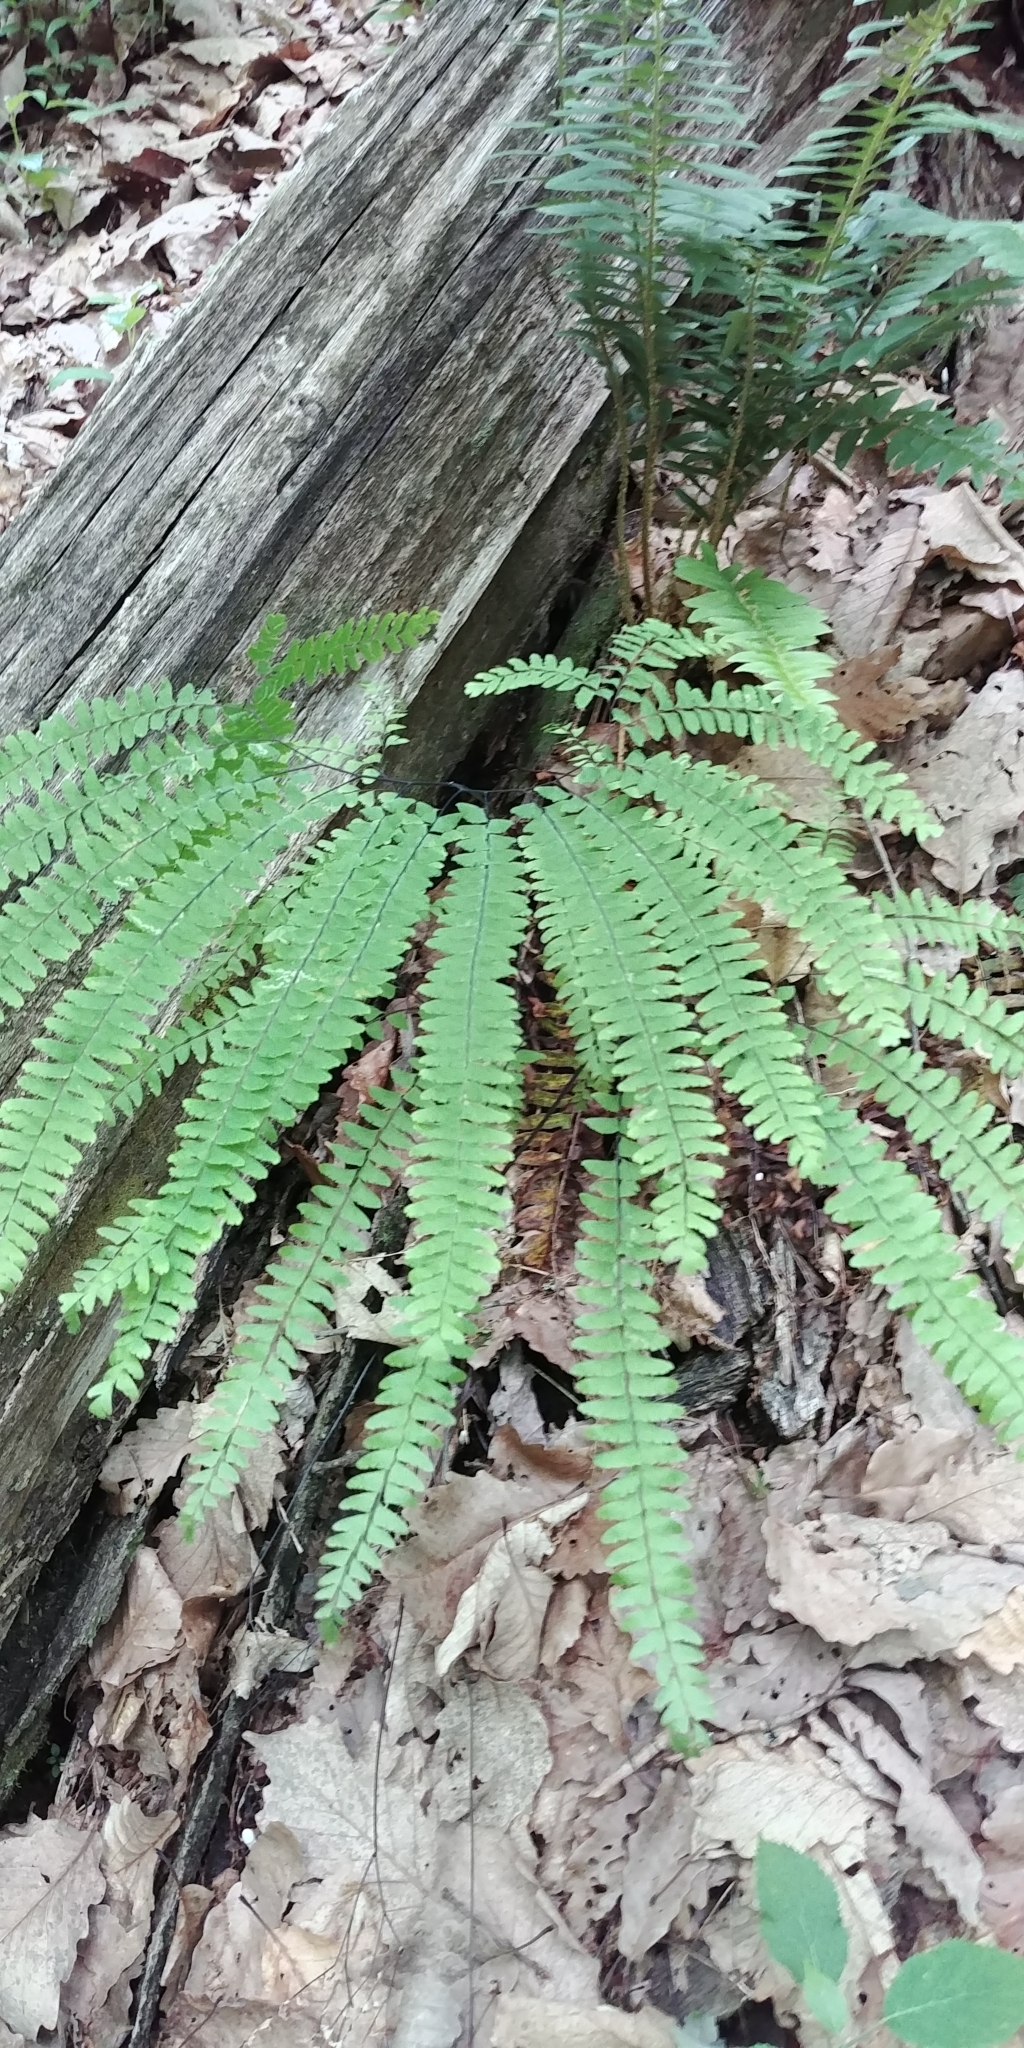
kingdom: Plantae
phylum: Tracheophyta
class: Polypodiopsida
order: Polypodiales
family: Pteridaceae
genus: Adiantum
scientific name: Adiantum pedatum
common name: Five-finger fern
